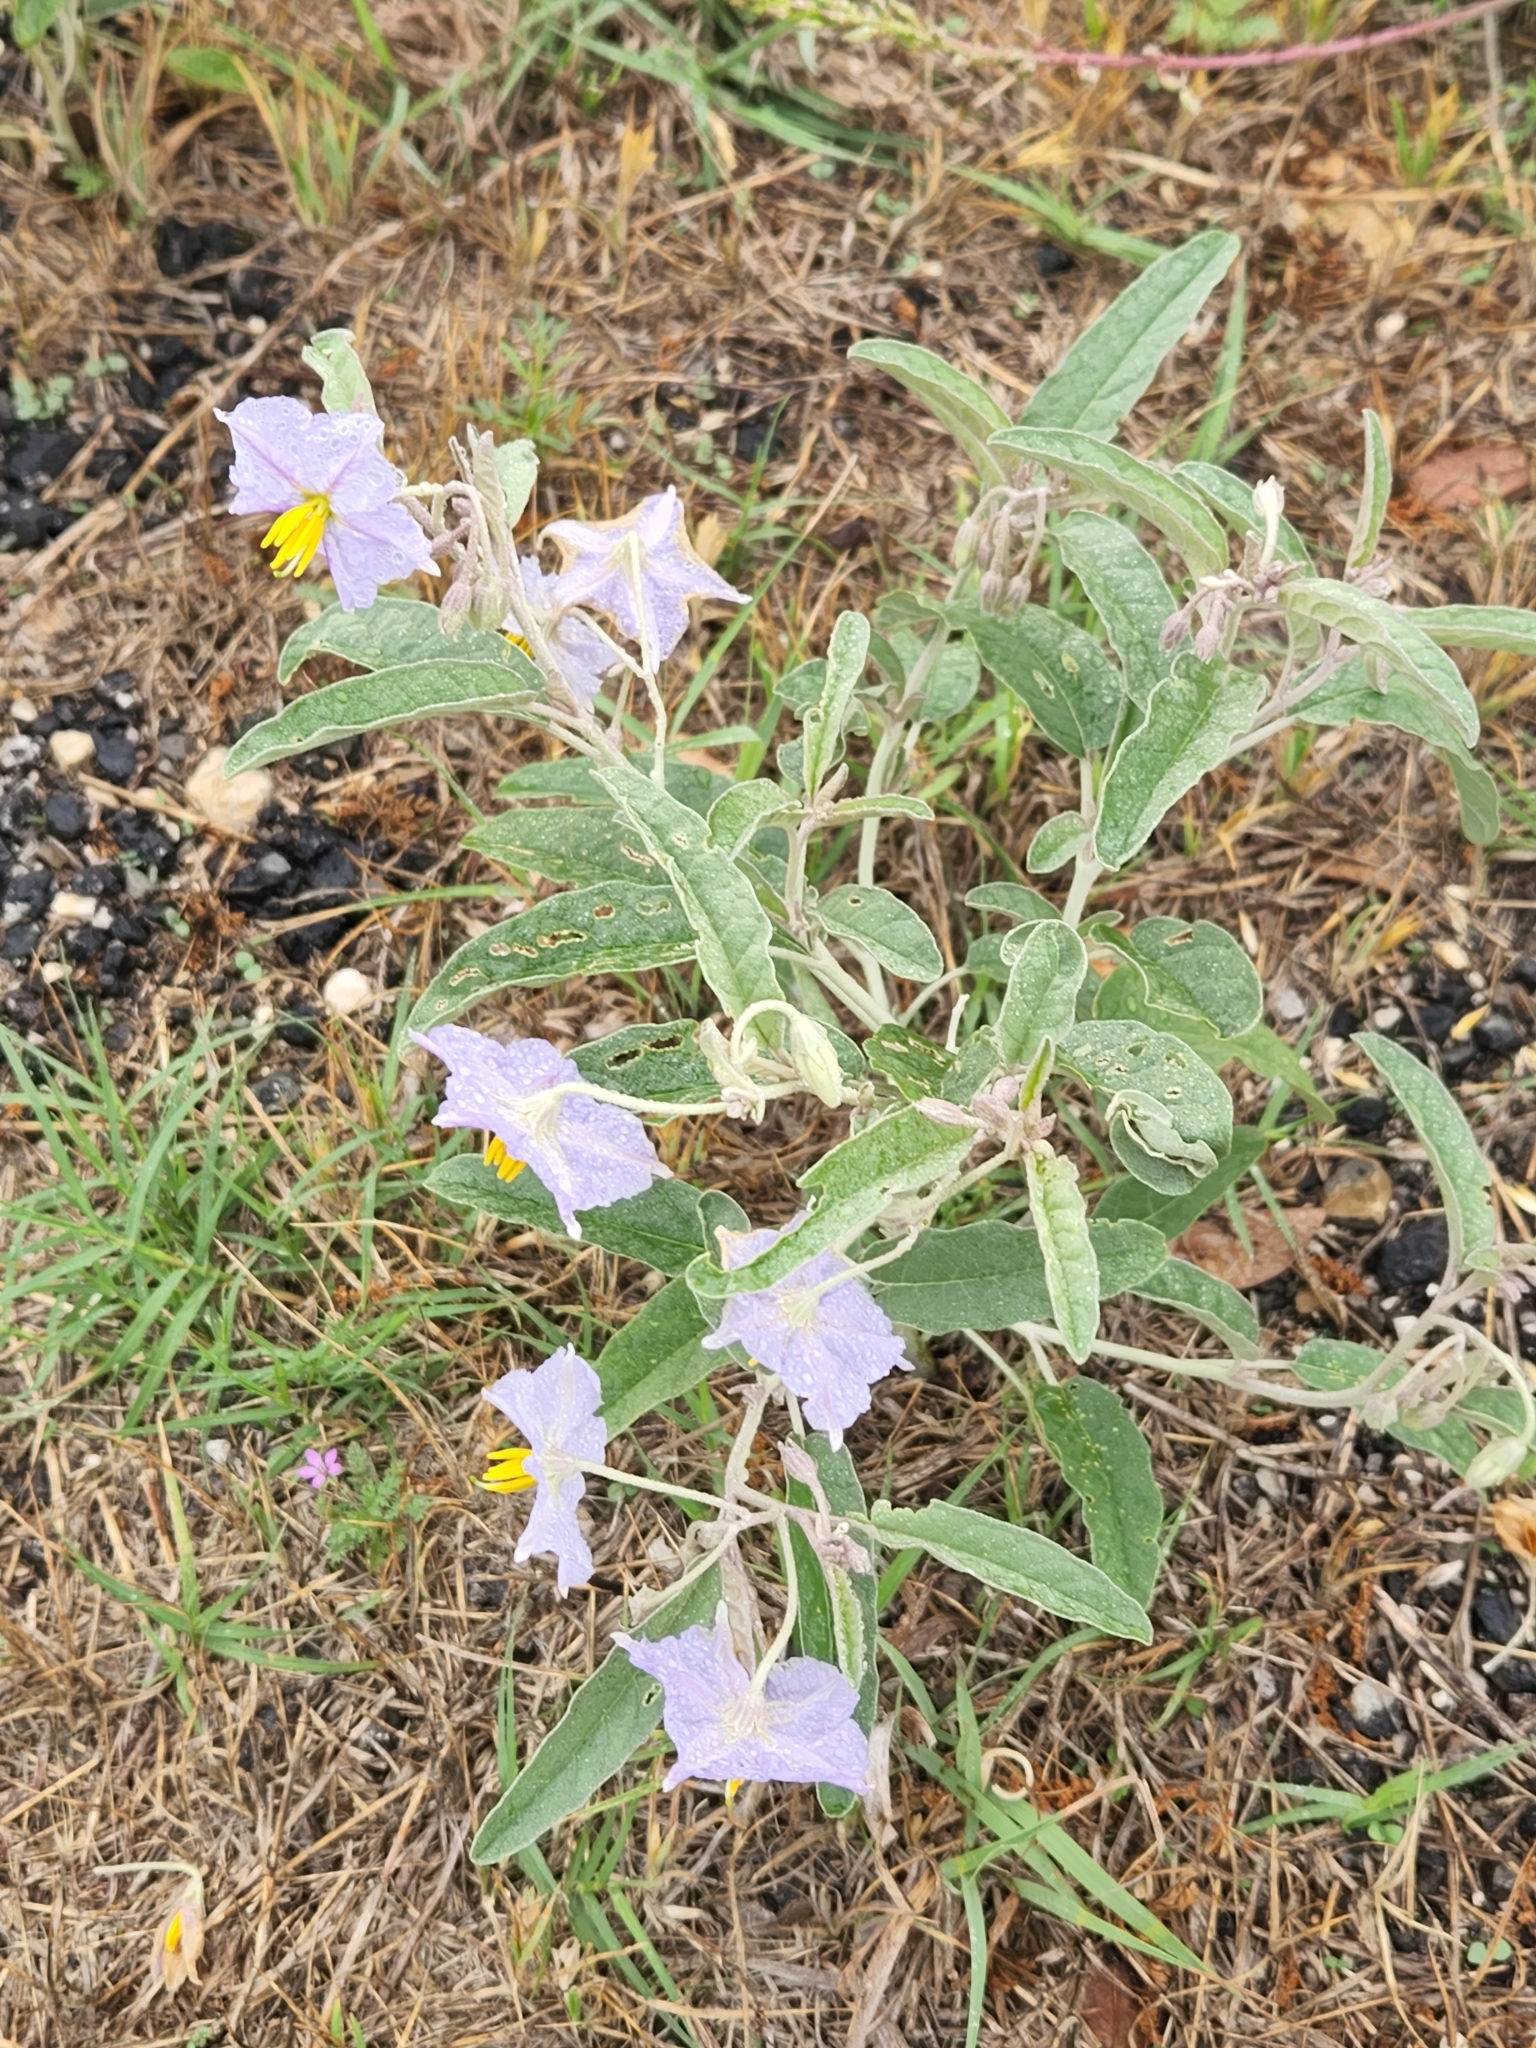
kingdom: Plantae
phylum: Tracheophyta
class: Magnoliopsida
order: Solanales
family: Solanaceae
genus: Solanum
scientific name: Solanum elaeagnifolium
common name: Silverleaf nightshade
